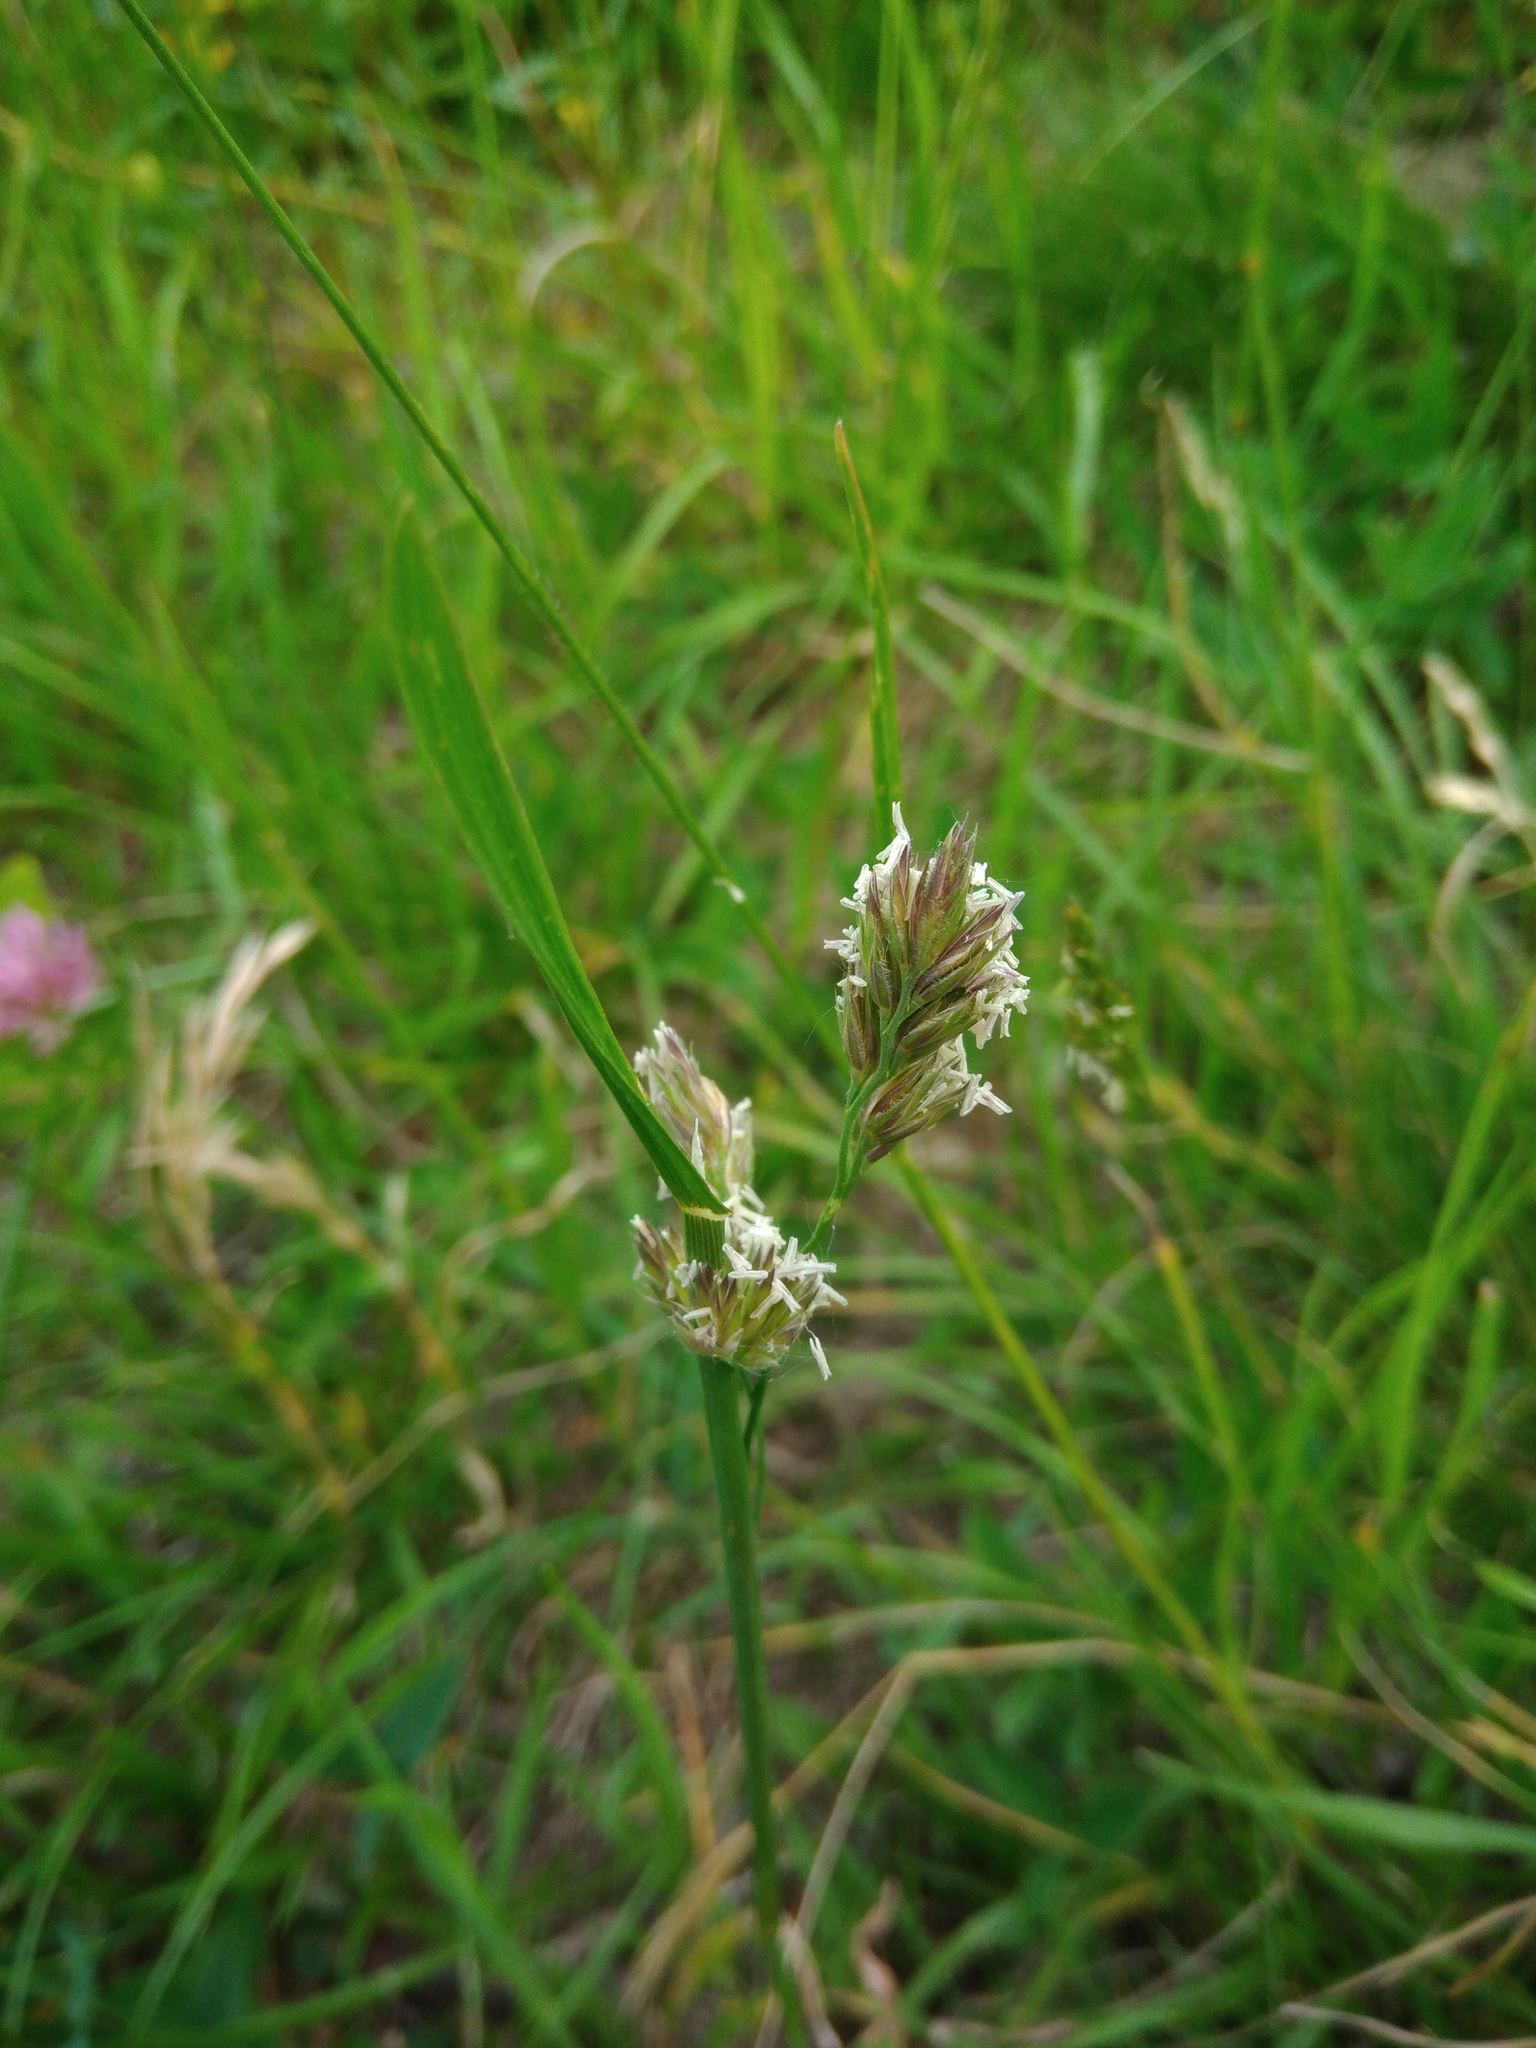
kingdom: Plantae
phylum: Tracheophyta
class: Liliopsida
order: Poales
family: Poaceae
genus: Dactylis
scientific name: Dactylis glomerata
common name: Orchardgrass
